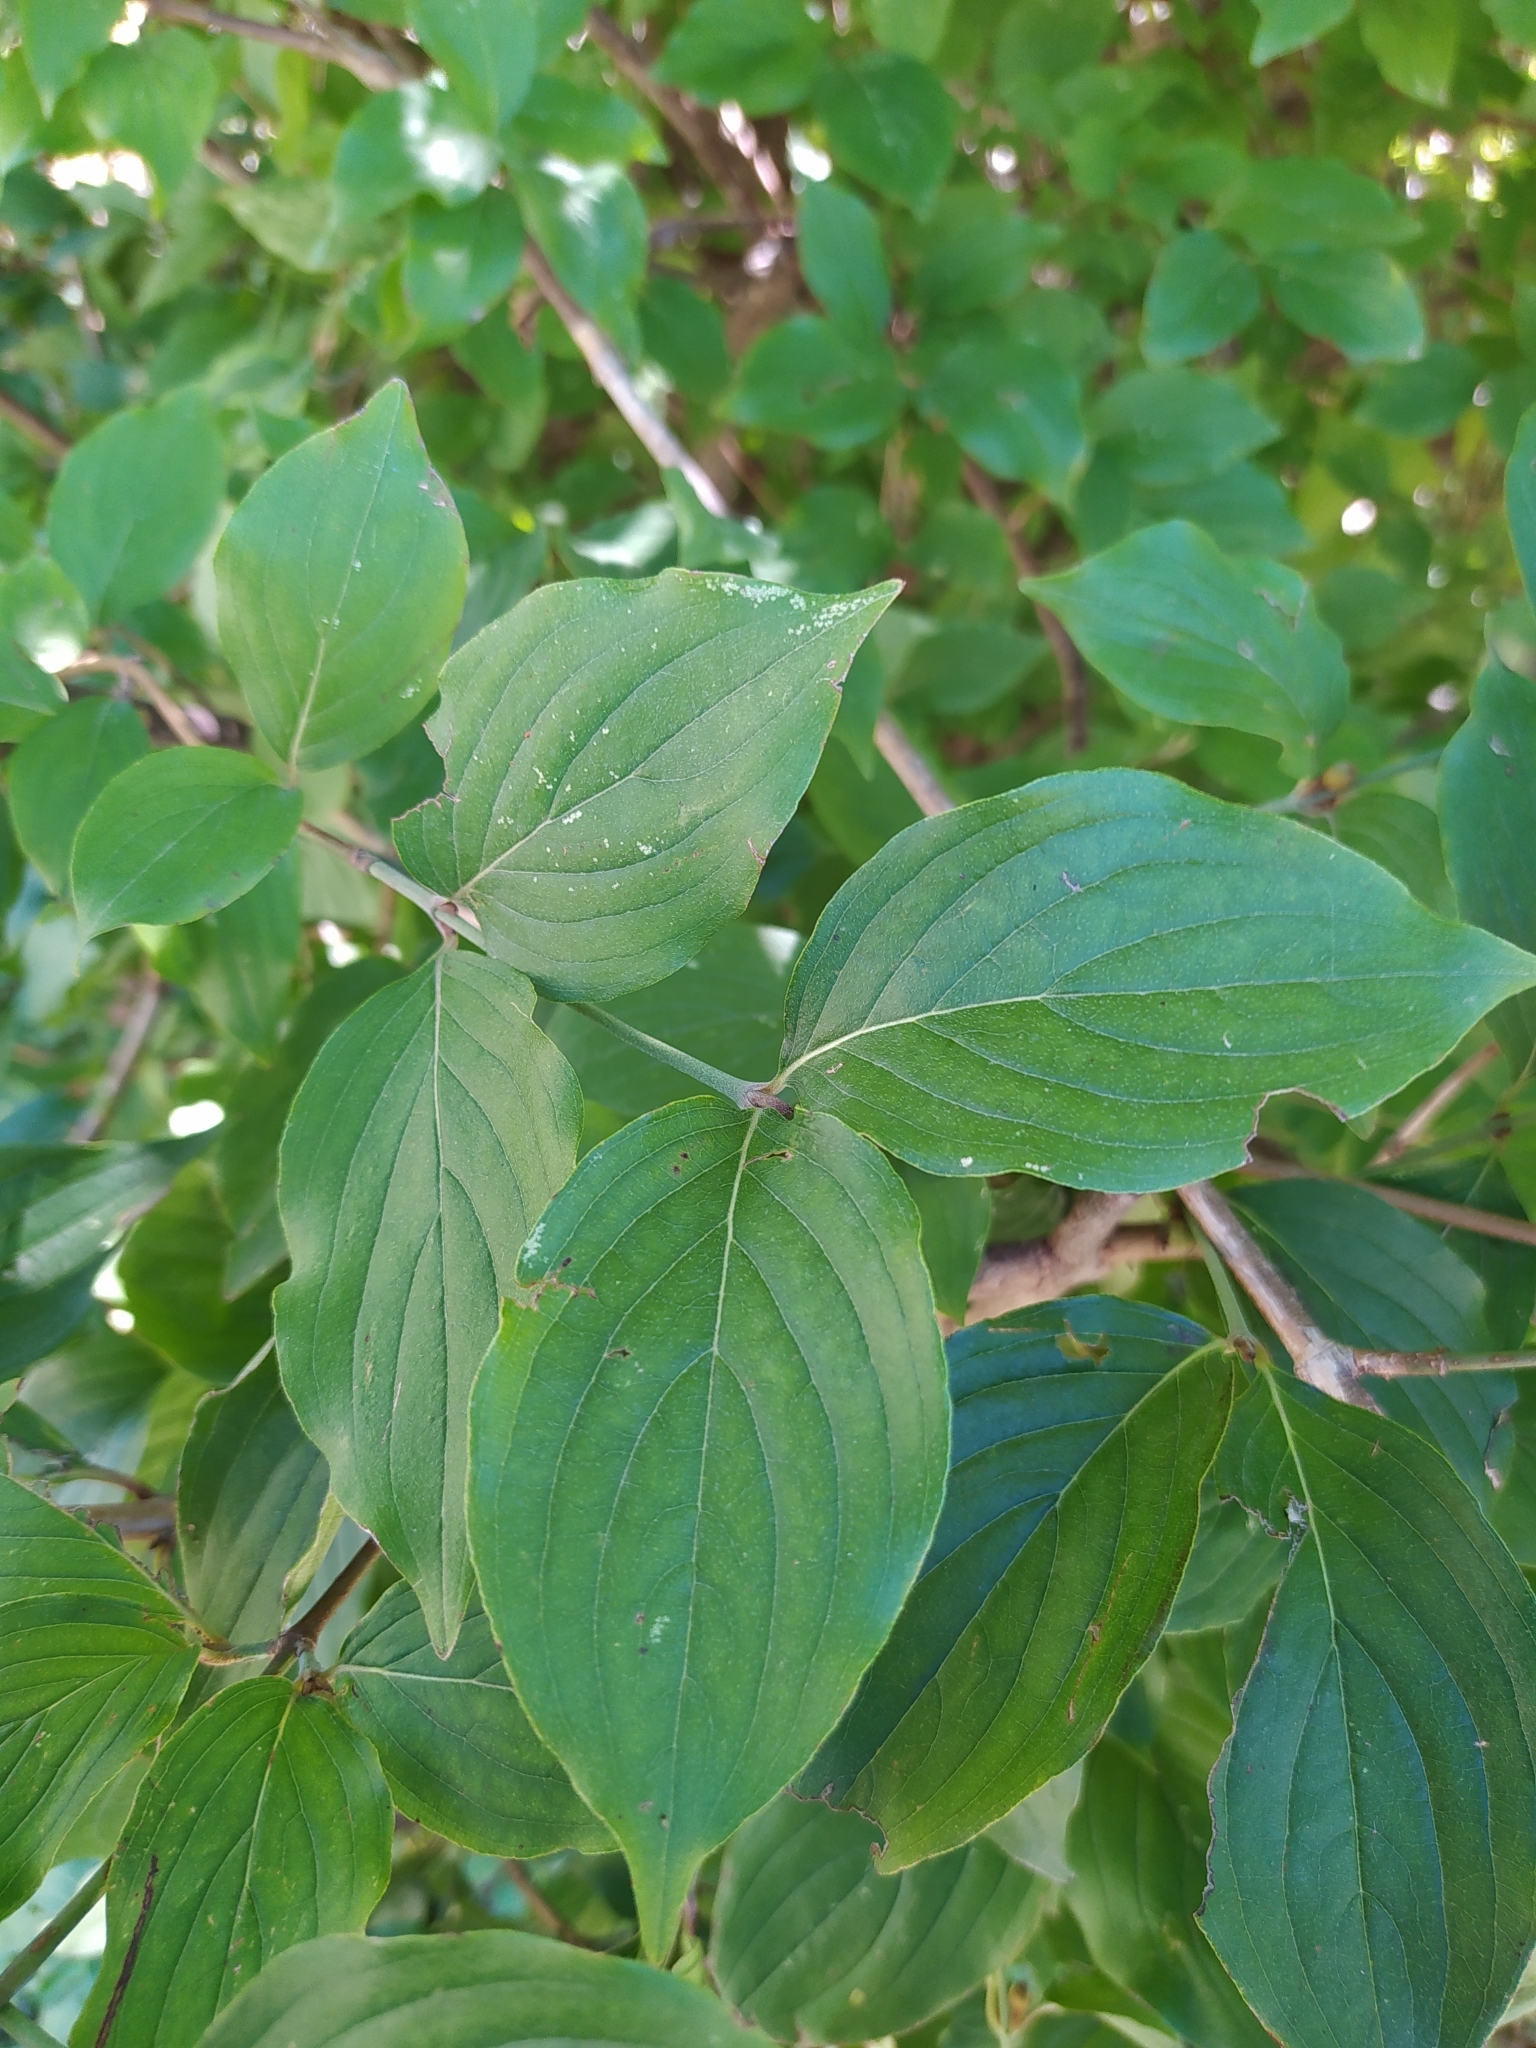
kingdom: Plantae
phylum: Tracheophyta
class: Magnoliopsida
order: Cornales
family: Cornaceae
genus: Cornus
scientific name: Cornus mas
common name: Cornelian-cherry
